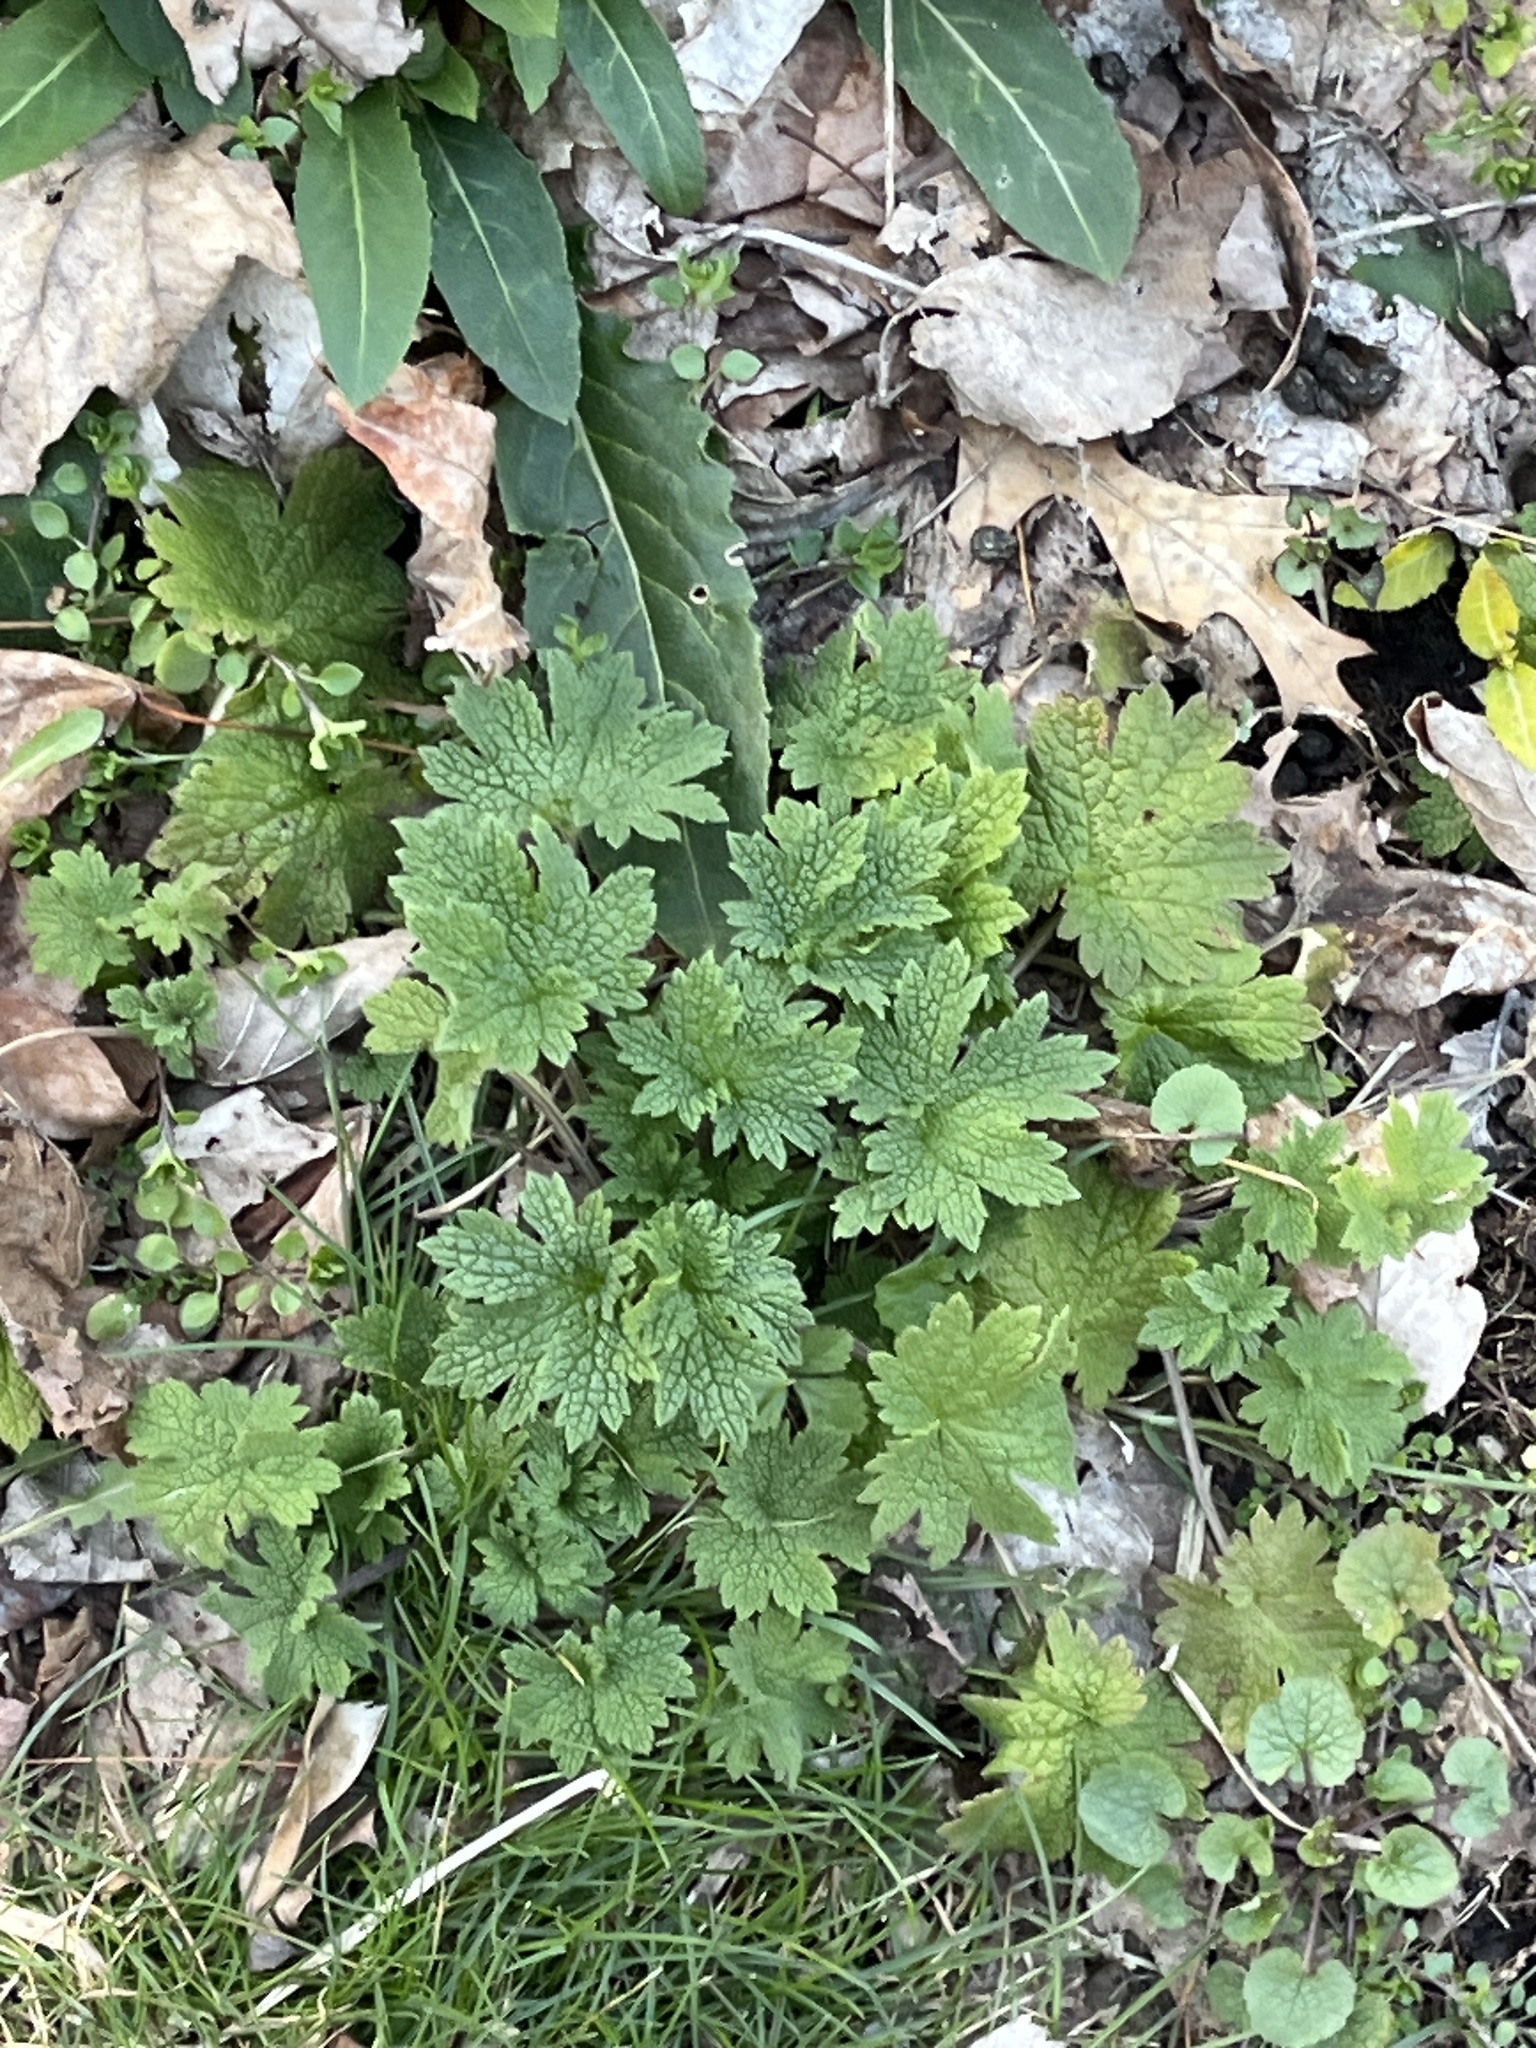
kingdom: Plantae
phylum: Tracheophyta
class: Magnoliopsida
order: Lamiales
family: Lamiaceae
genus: Leonurus
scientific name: Leonurus cardiaca
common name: Motherwort
